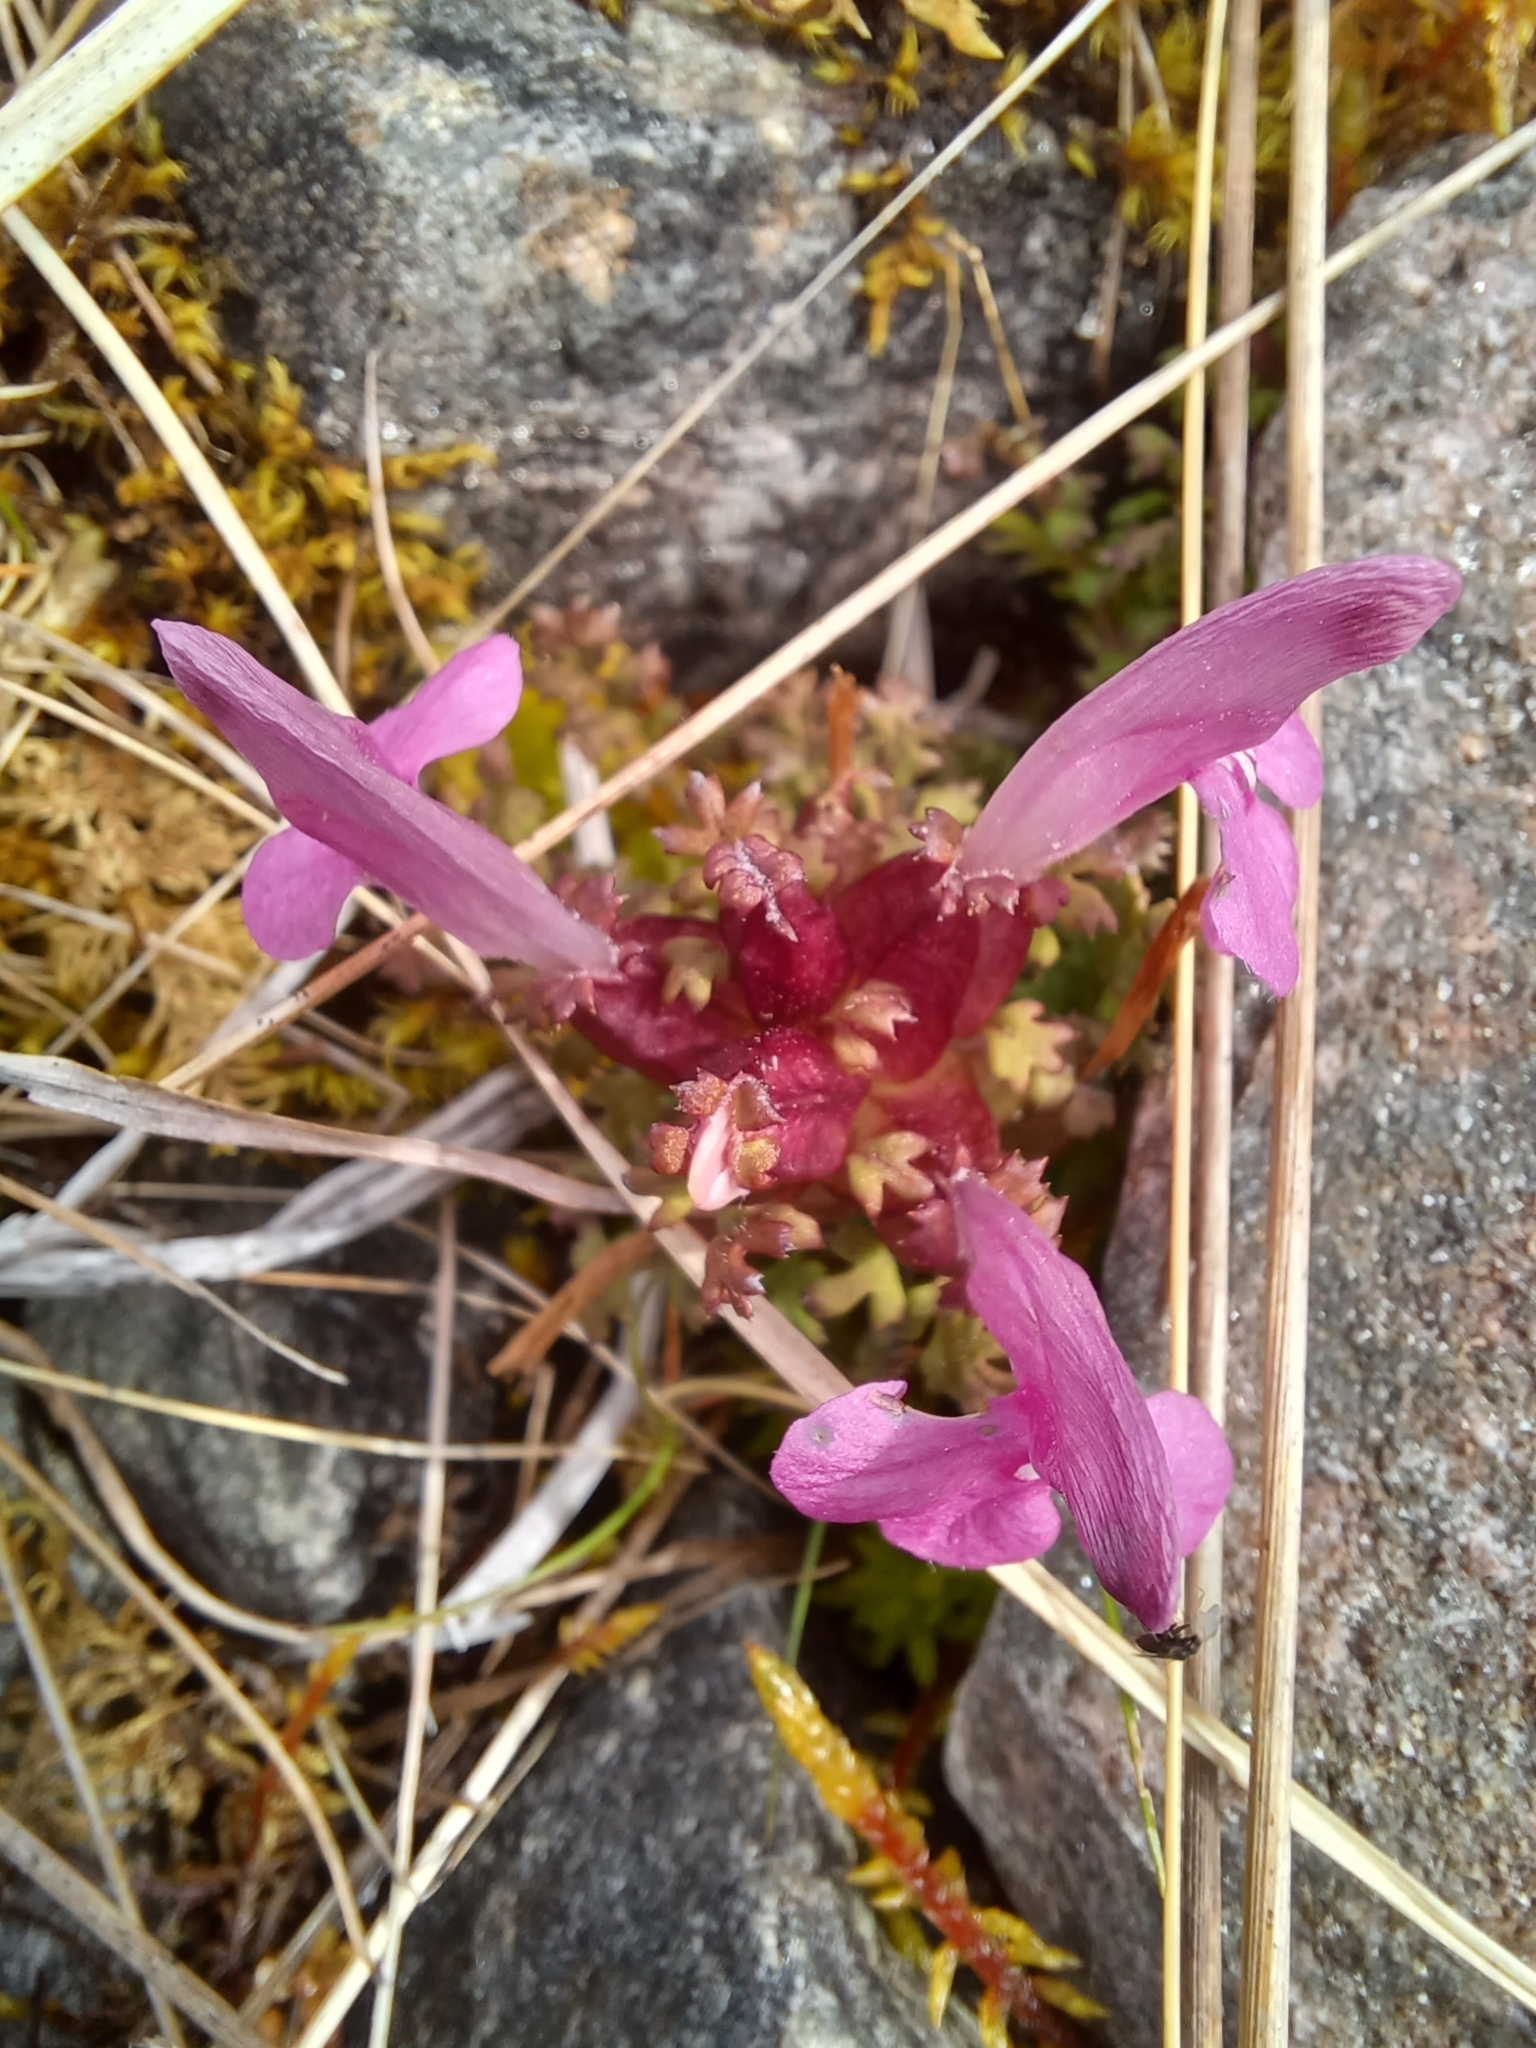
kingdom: Plantae
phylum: Tracheophyta
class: Magnoliopsida
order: Lamiales
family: Orobanchaceae
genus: Pedicularis
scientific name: Pedicularis sylvatica
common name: Lousewort
